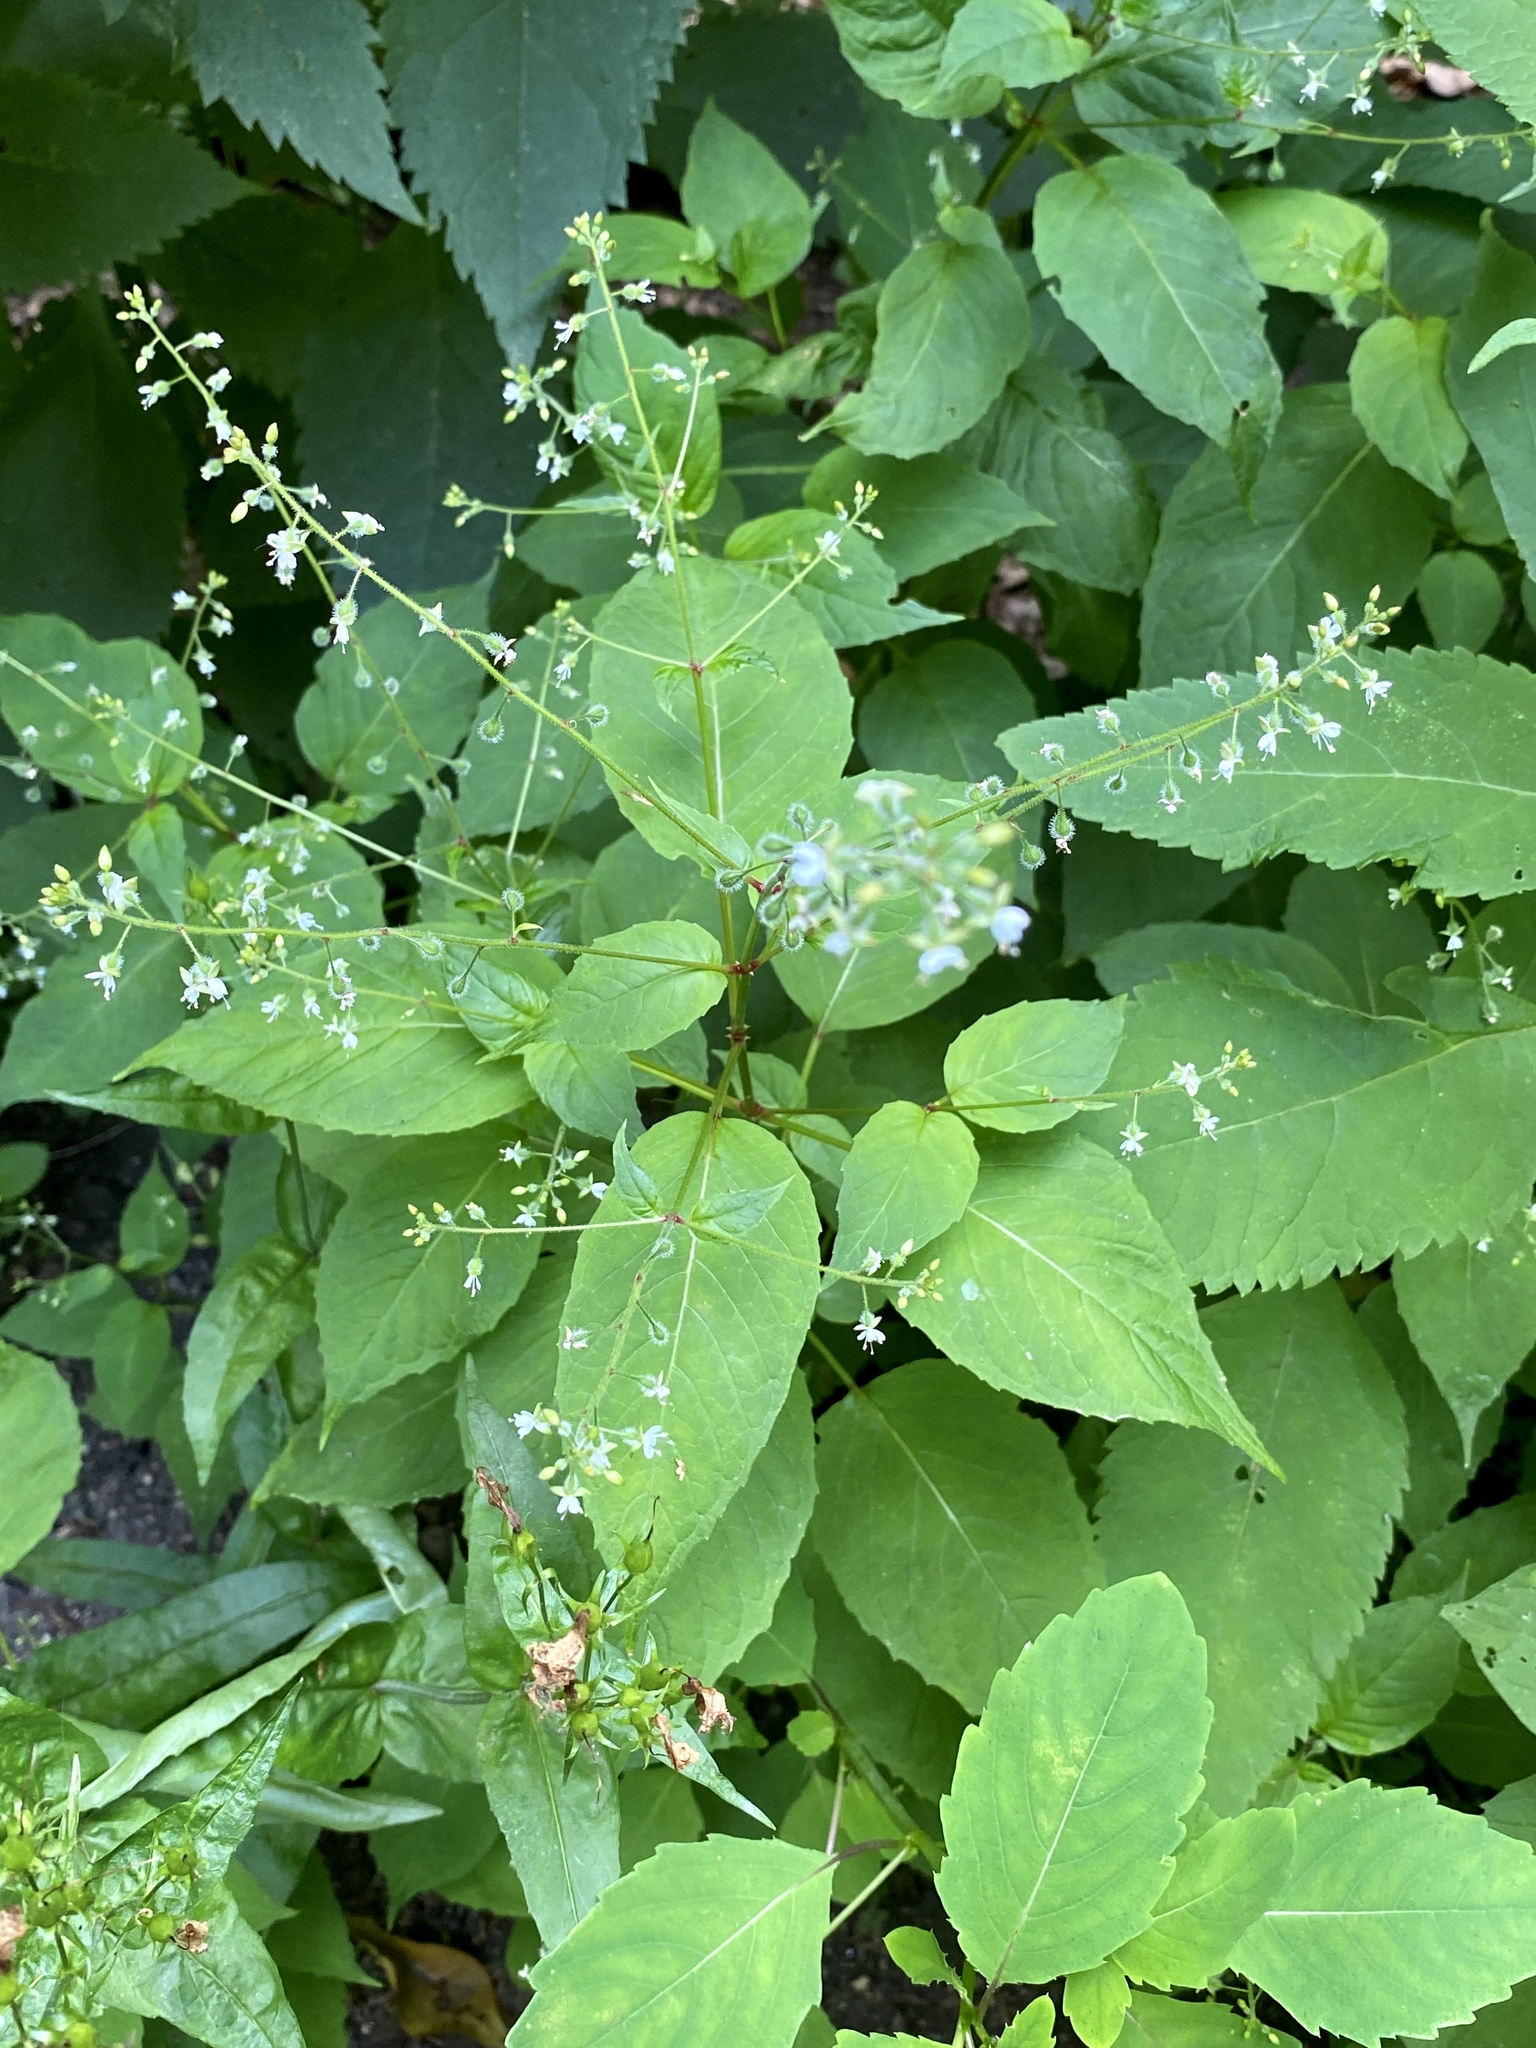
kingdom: Plantae
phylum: Tracheophyta
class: Magnoliopsida
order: Myrtales
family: Onagraceae
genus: Circaea
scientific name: Circaea canadensis
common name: Broad-leaved enchanter's nightshade
